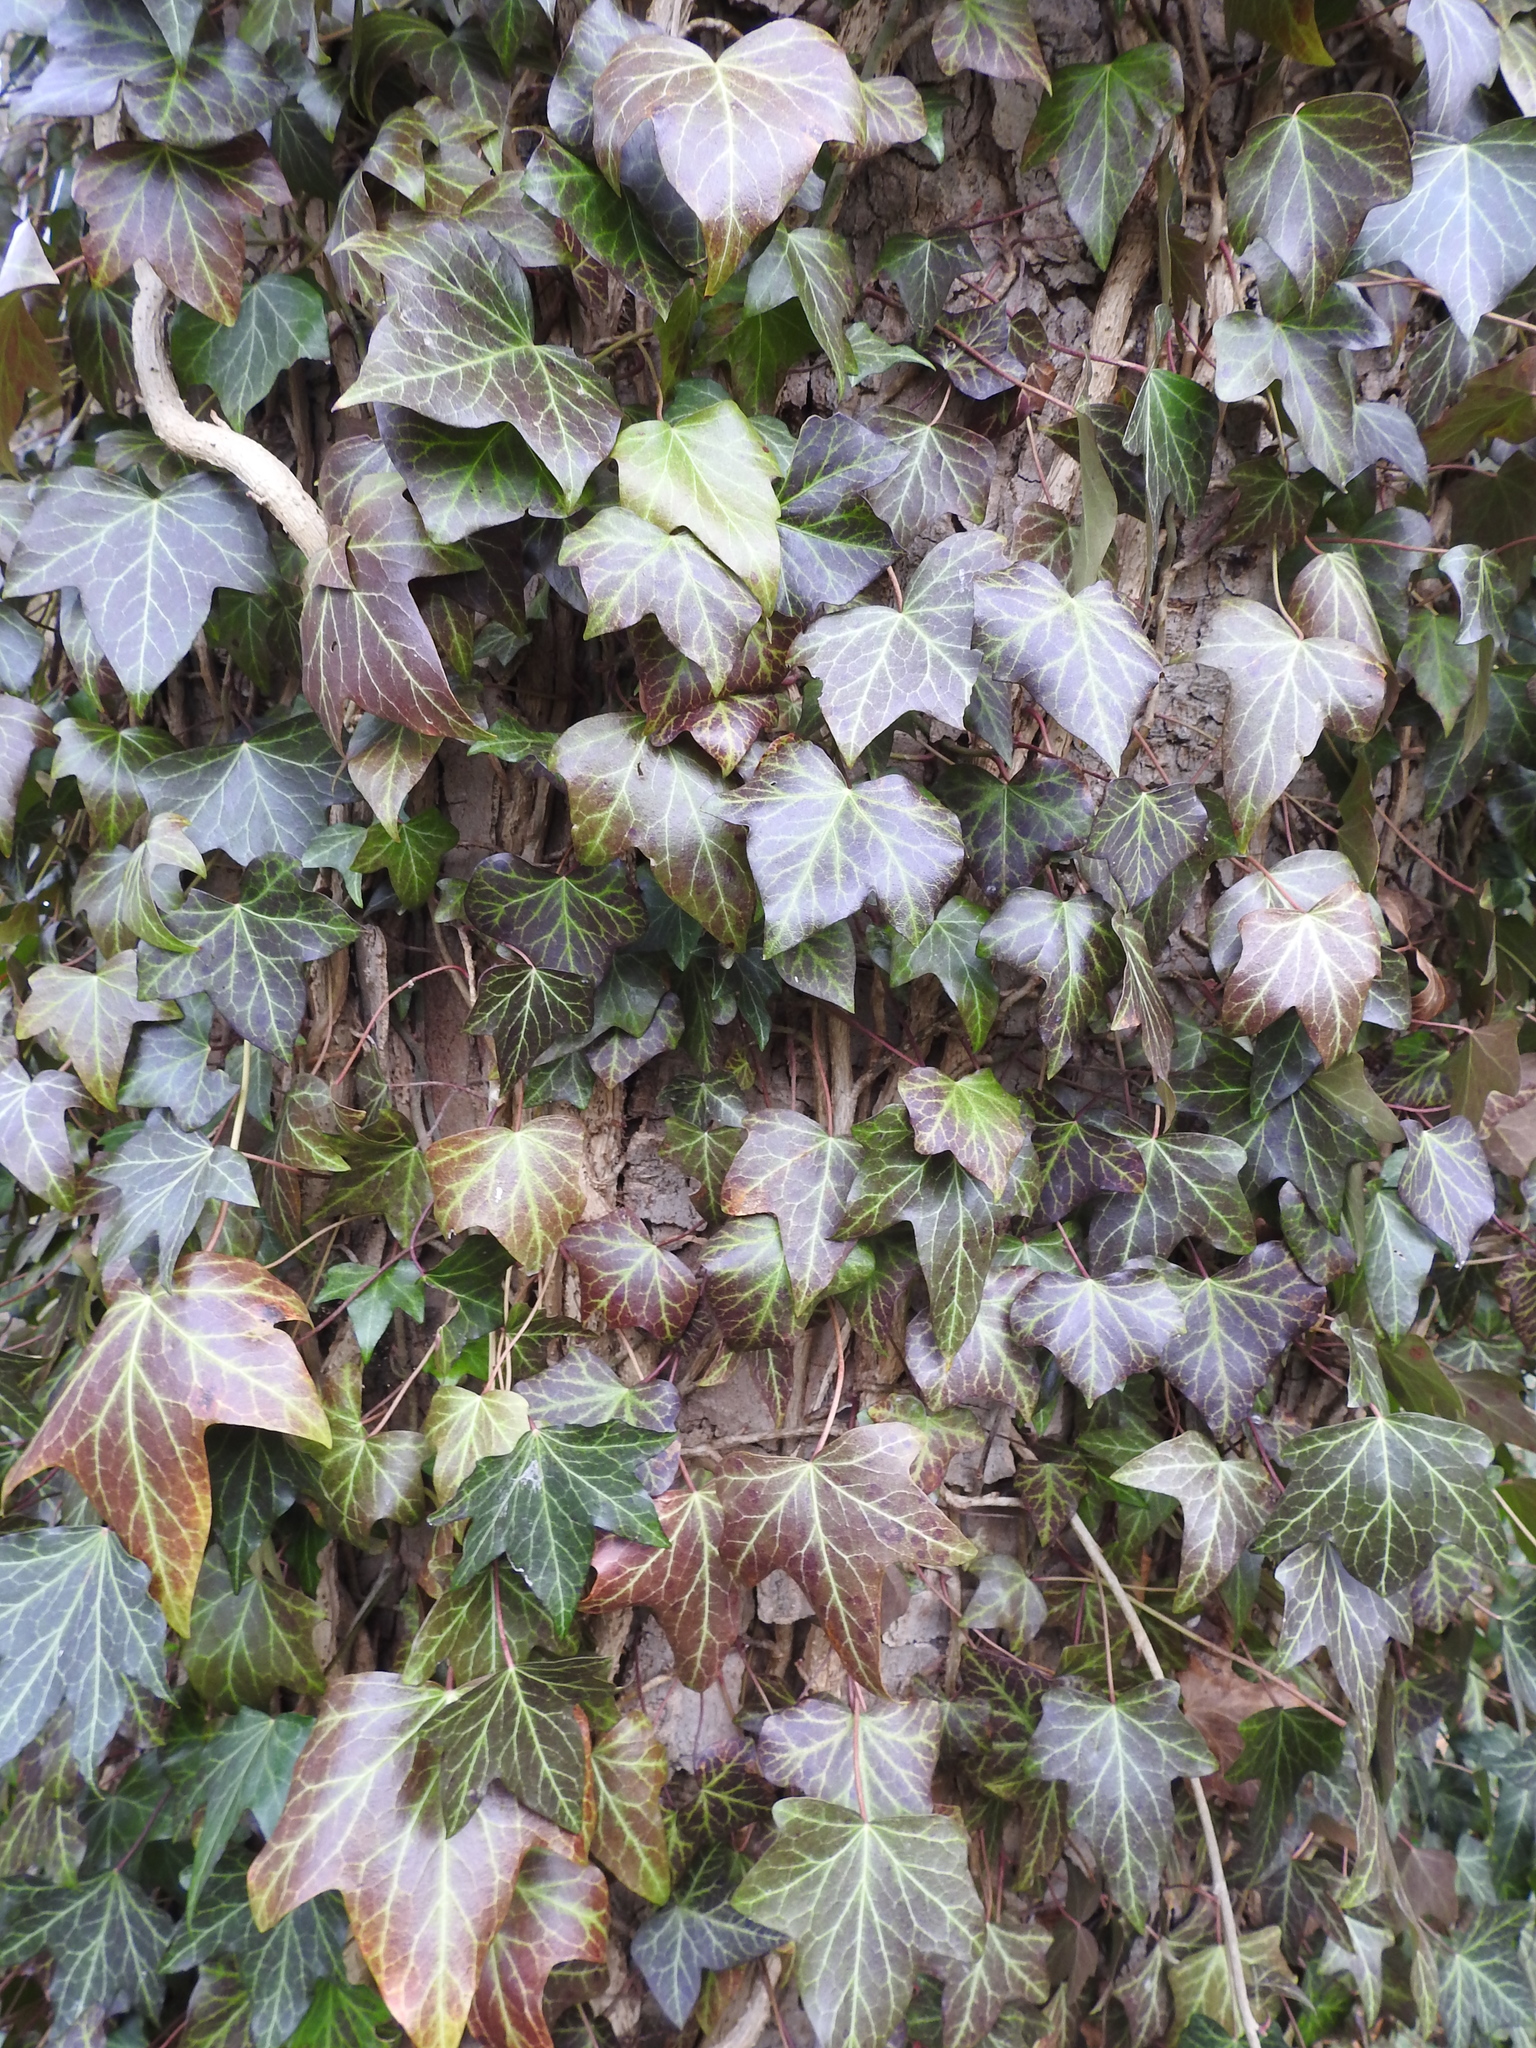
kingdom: Plantae
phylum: Tracheophyta
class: Magnoliopsida
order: Apiales
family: Araliaceae
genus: Hedera
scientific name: Hedera helix
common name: Ivy
